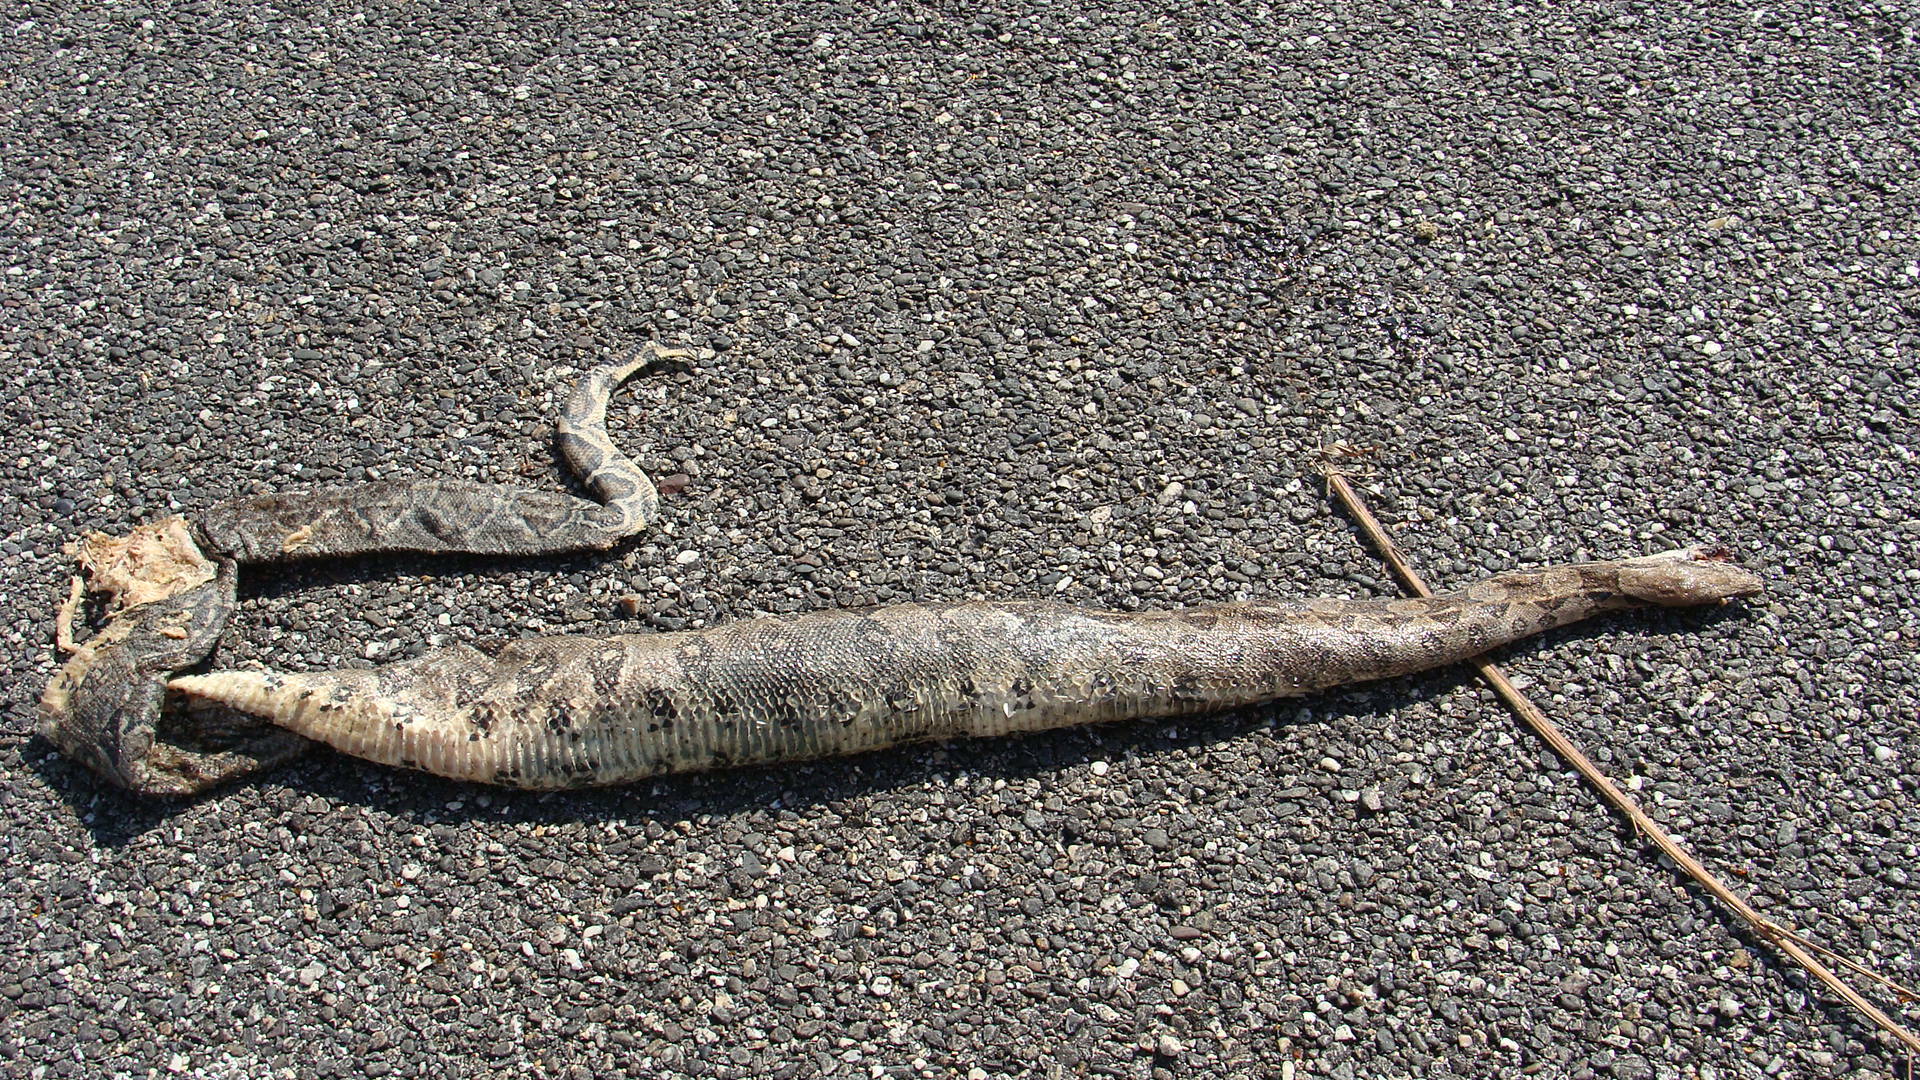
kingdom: Animalia
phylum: Chordata
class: Squamata
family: Boidae
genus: Boa
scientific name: Boa
